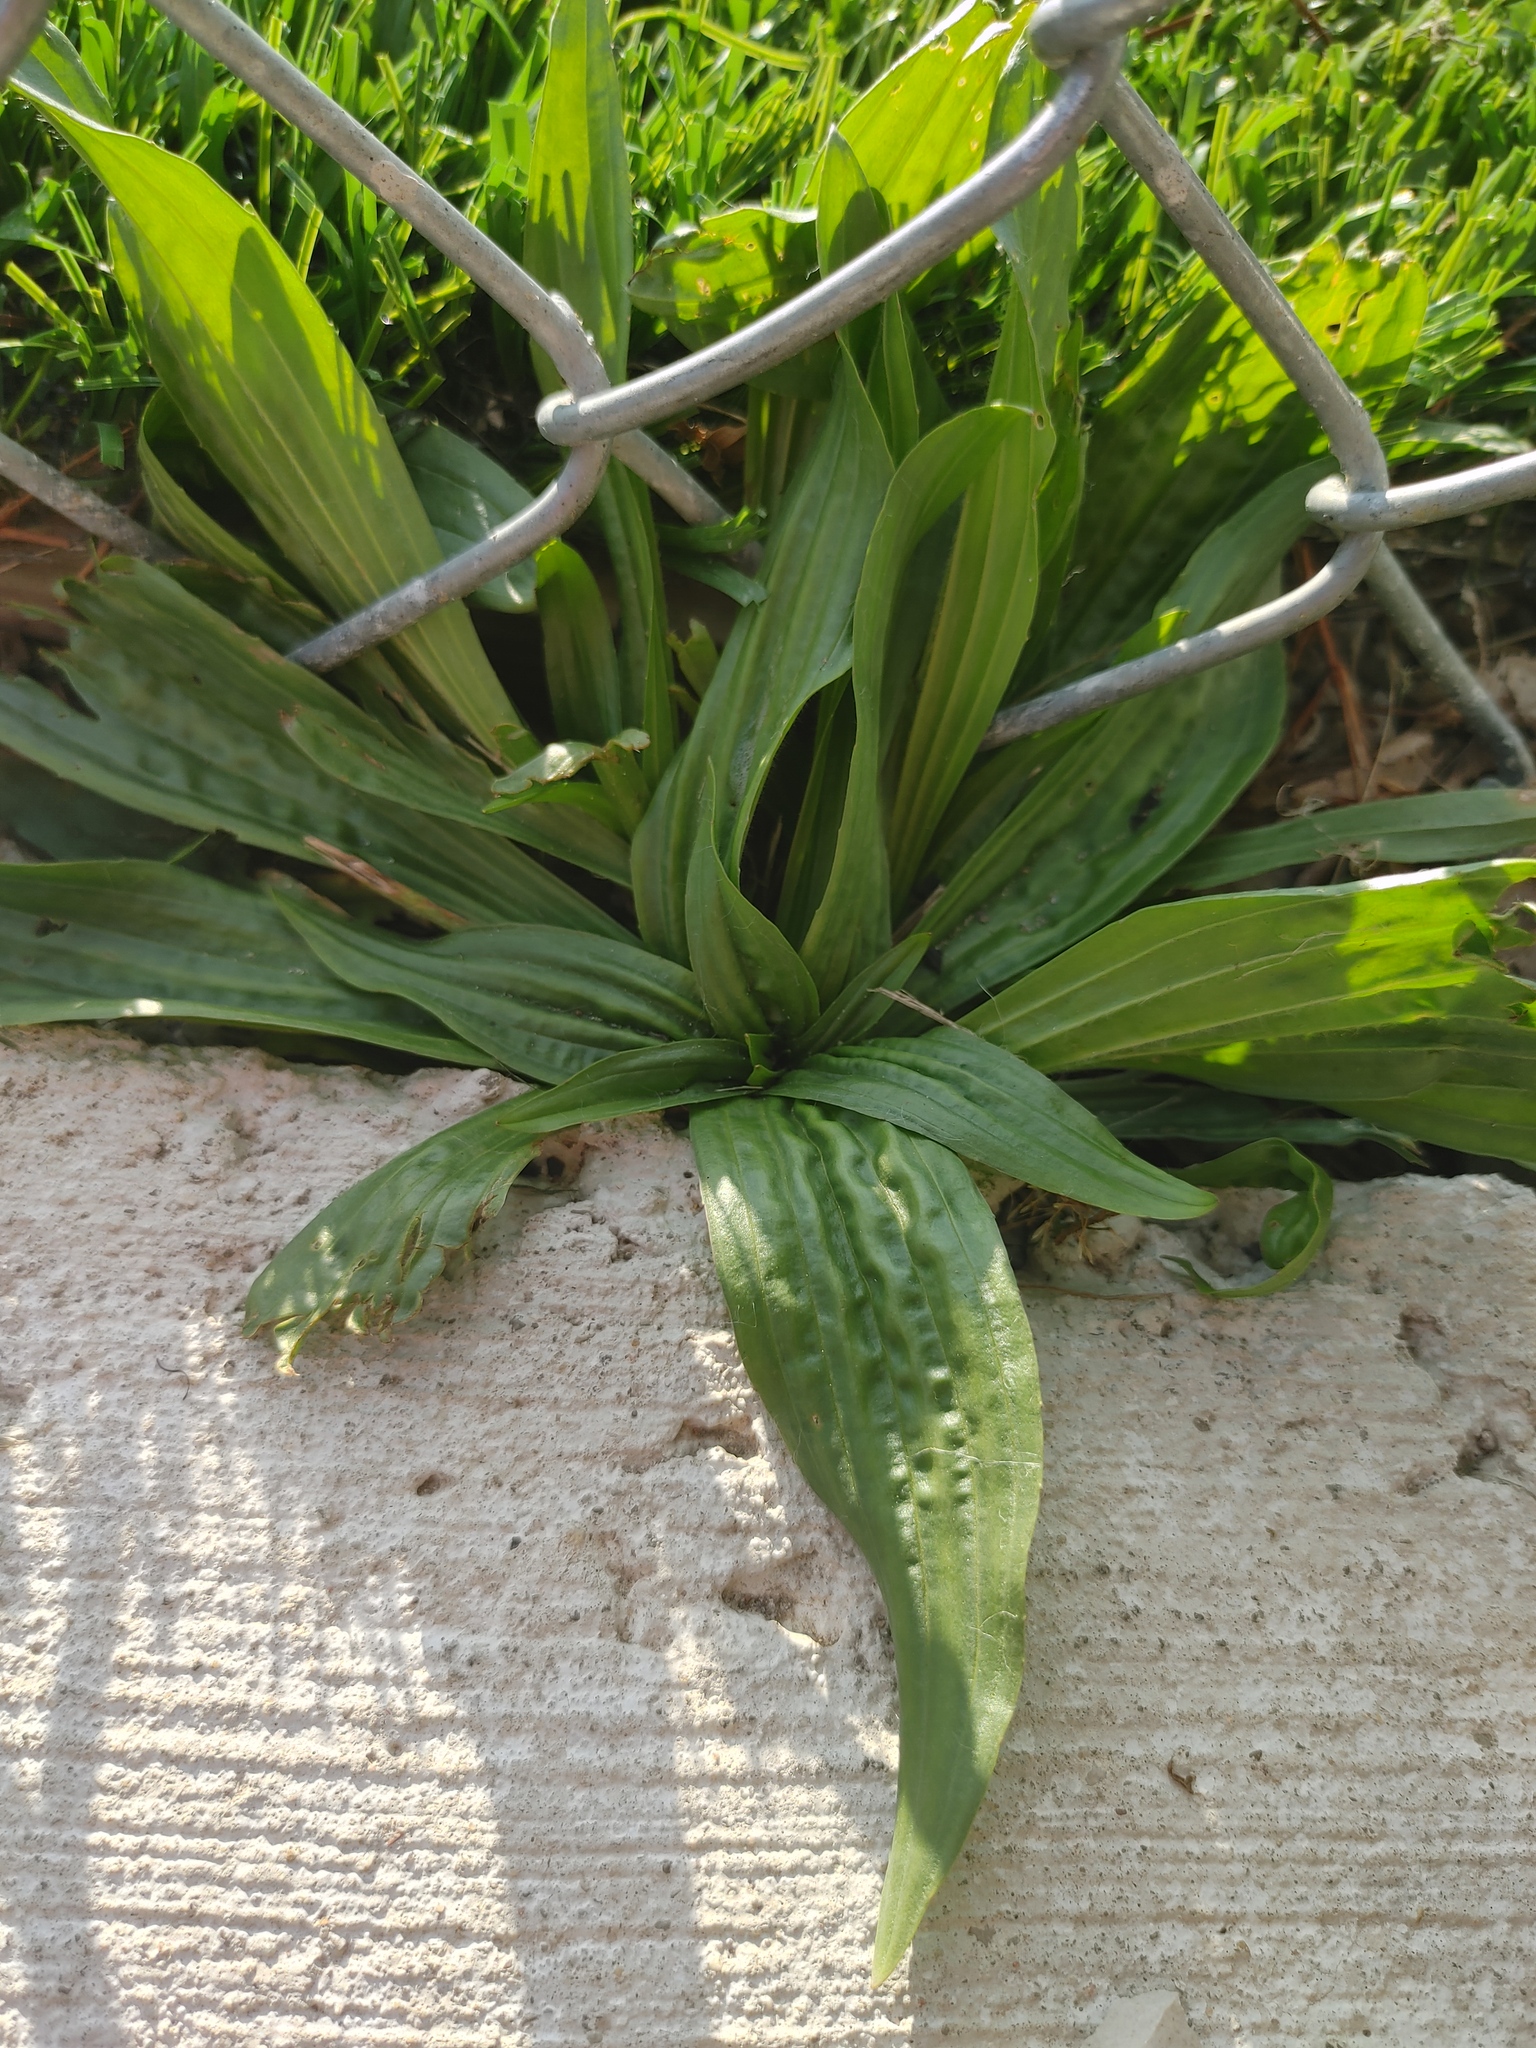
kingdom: Plantae
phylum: Tracheophyta
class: Magnoliopsida
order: Lamiales
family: Plantaginaceae
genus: Plantago
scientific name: Plantago lanceolata
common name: Ribwort plantain
